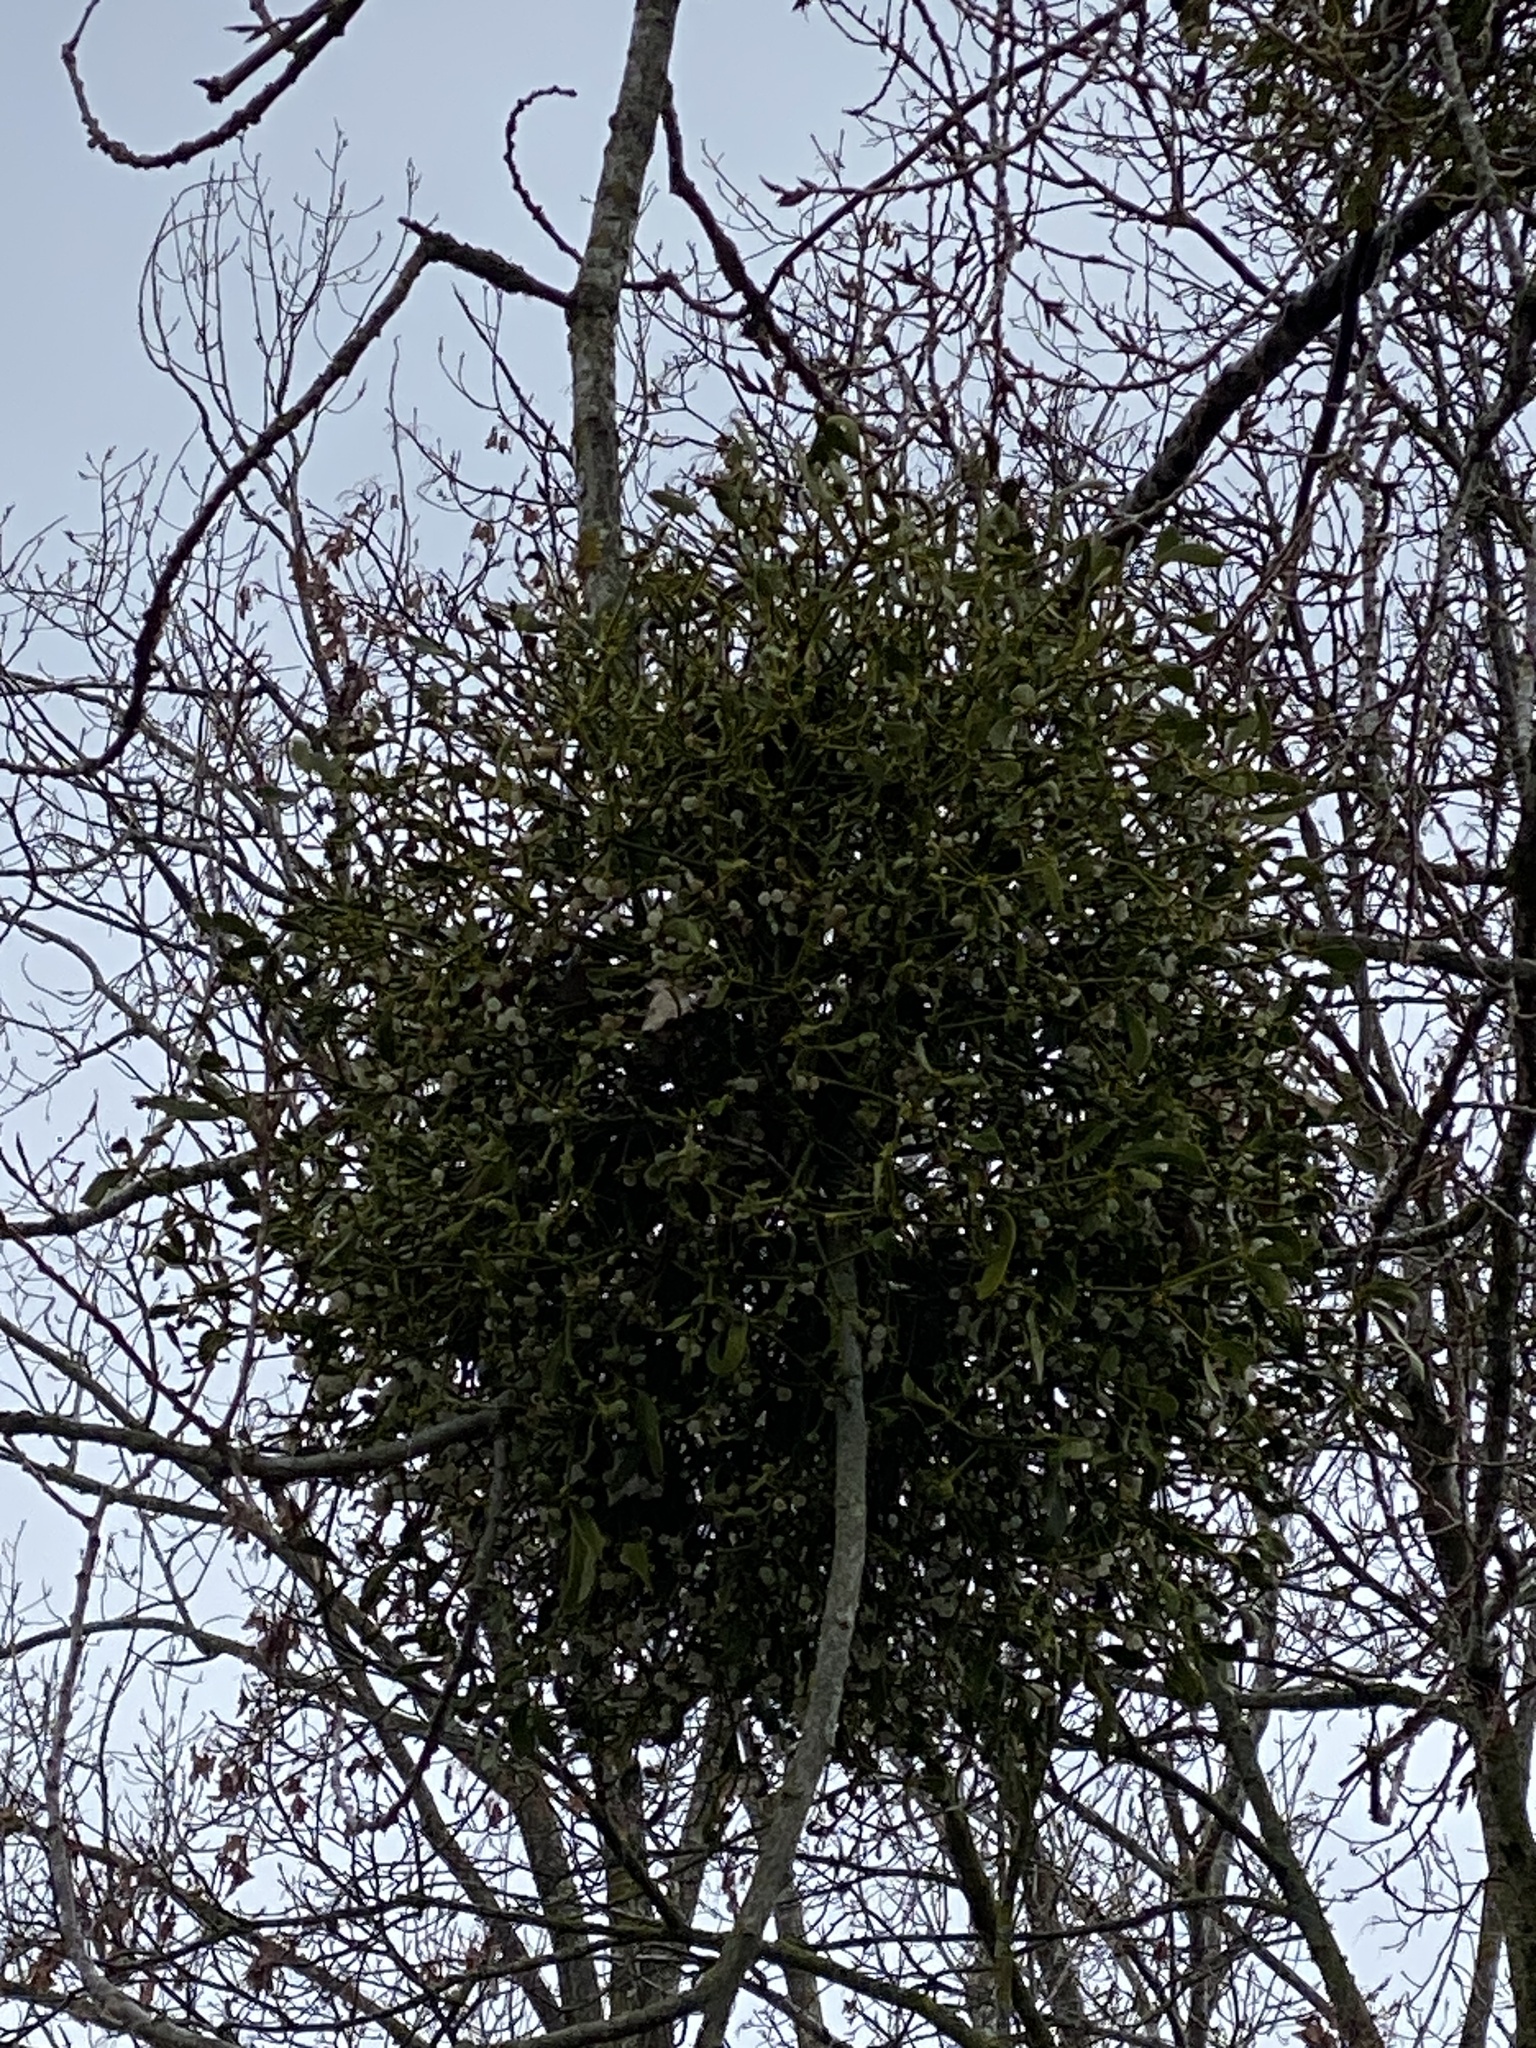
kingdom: Plantae
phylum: Tracheophyta
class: Magnoliopsida
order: Santalales
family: Viscaceae
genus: Viscum
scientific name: Viscum album
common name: Mistletoe
